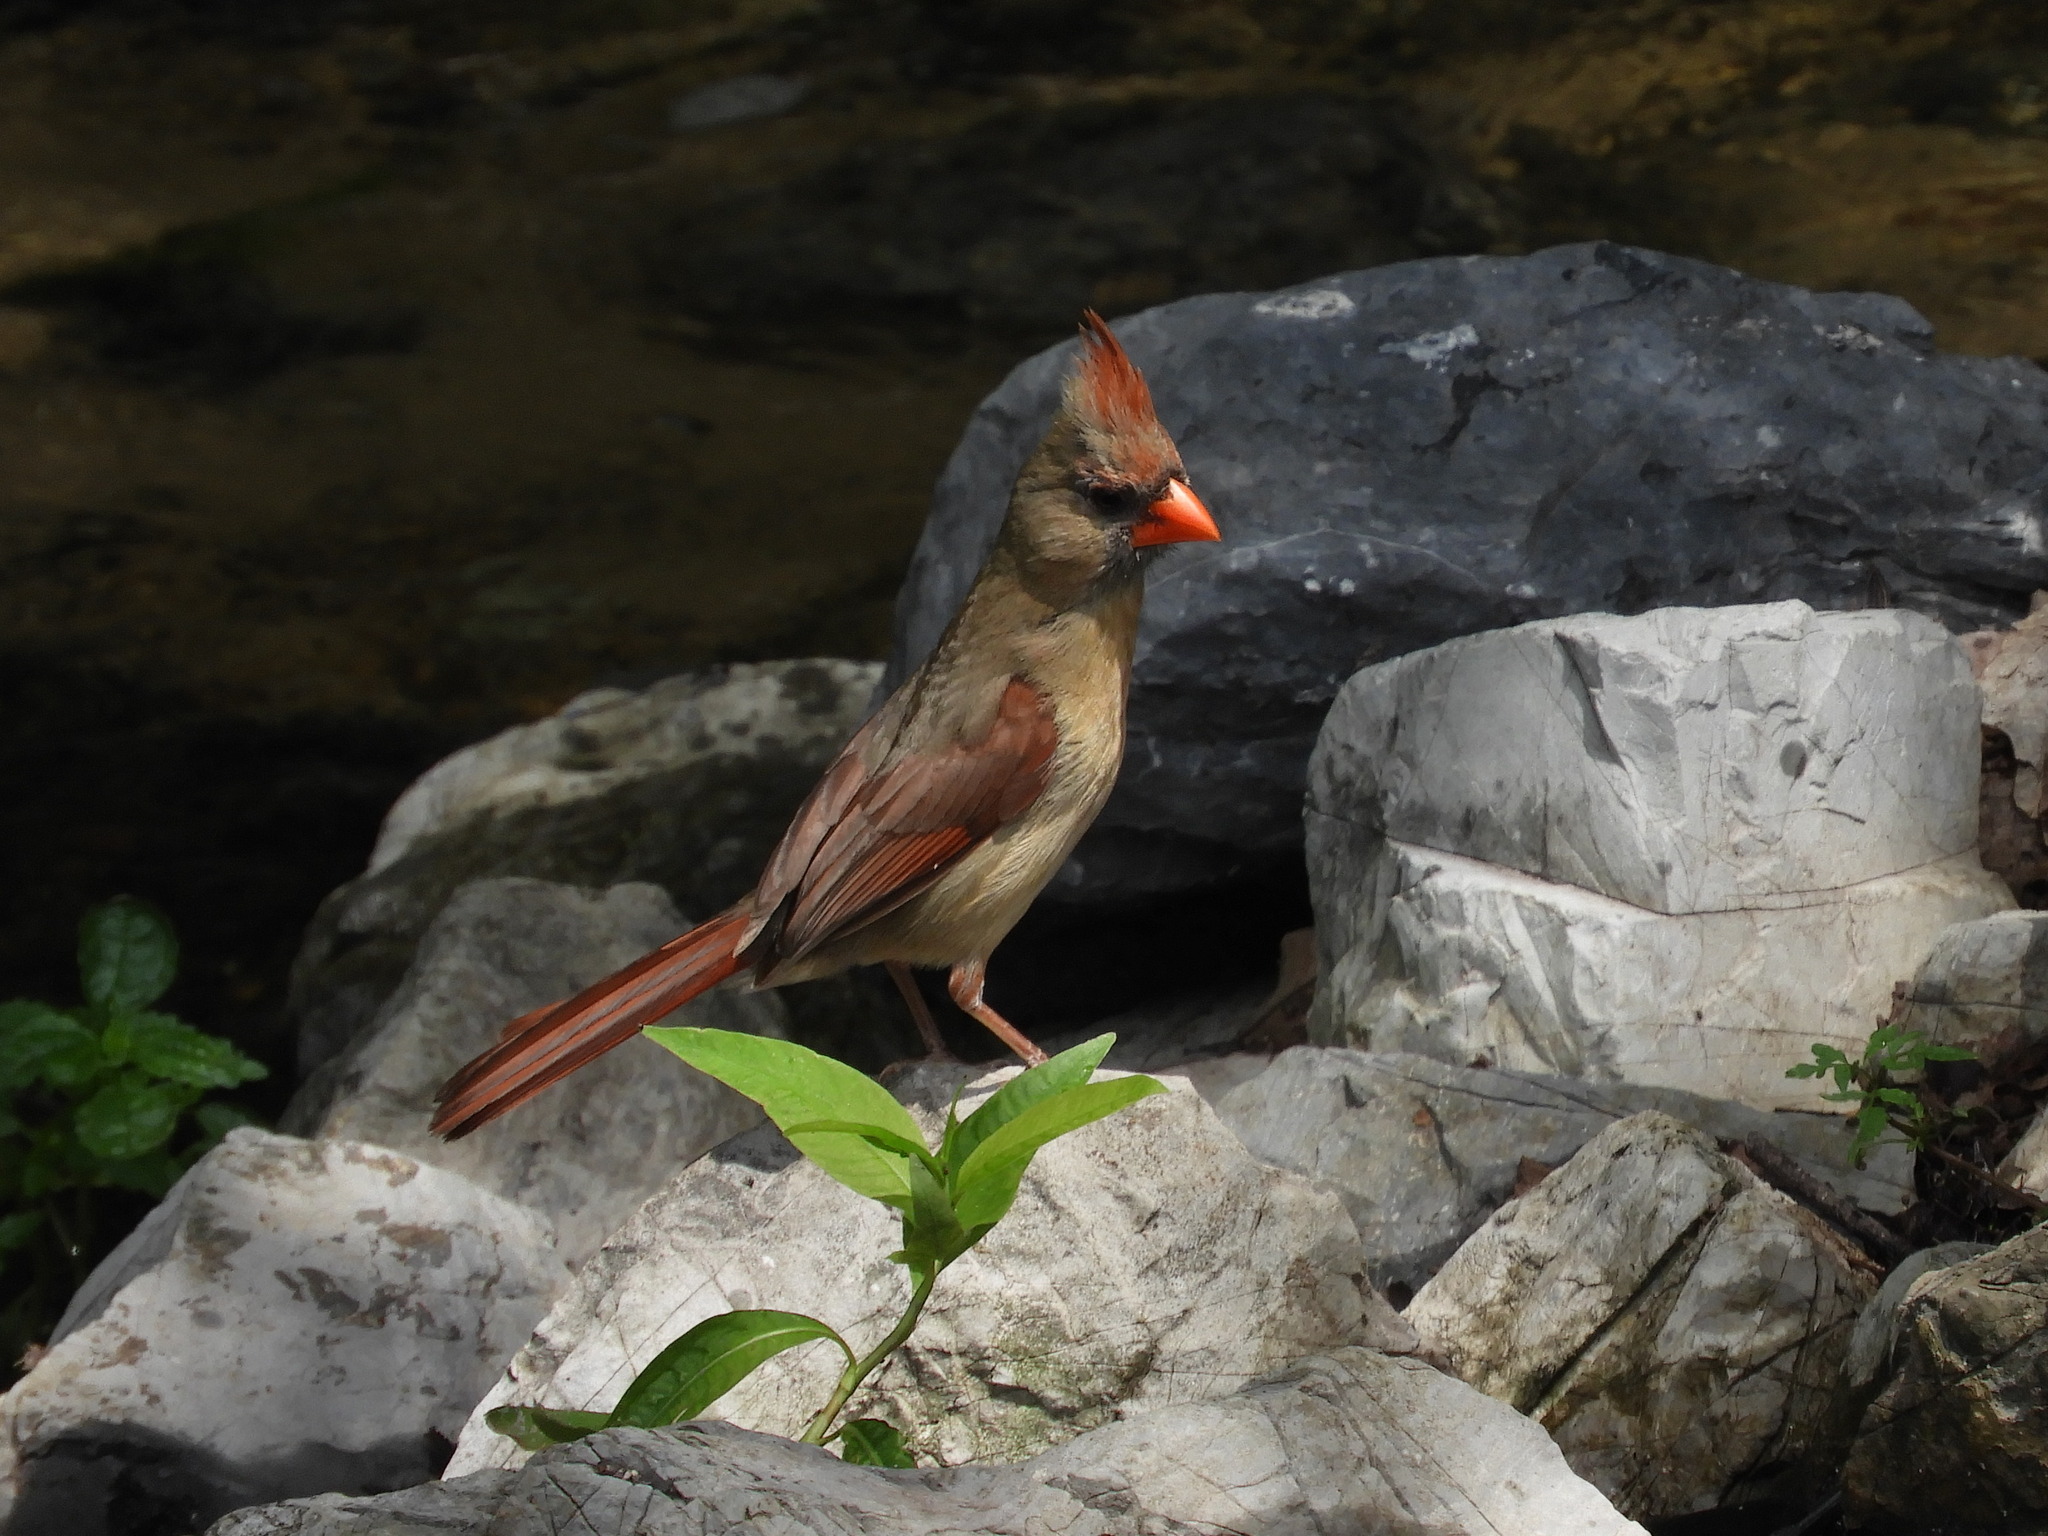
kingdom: Animalia
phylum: Chordata
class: Aves
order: Passeriformes
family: Cardinalidae
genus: Cardinalis
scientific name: Cardinalis cardinalis
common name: Northern cardinal
